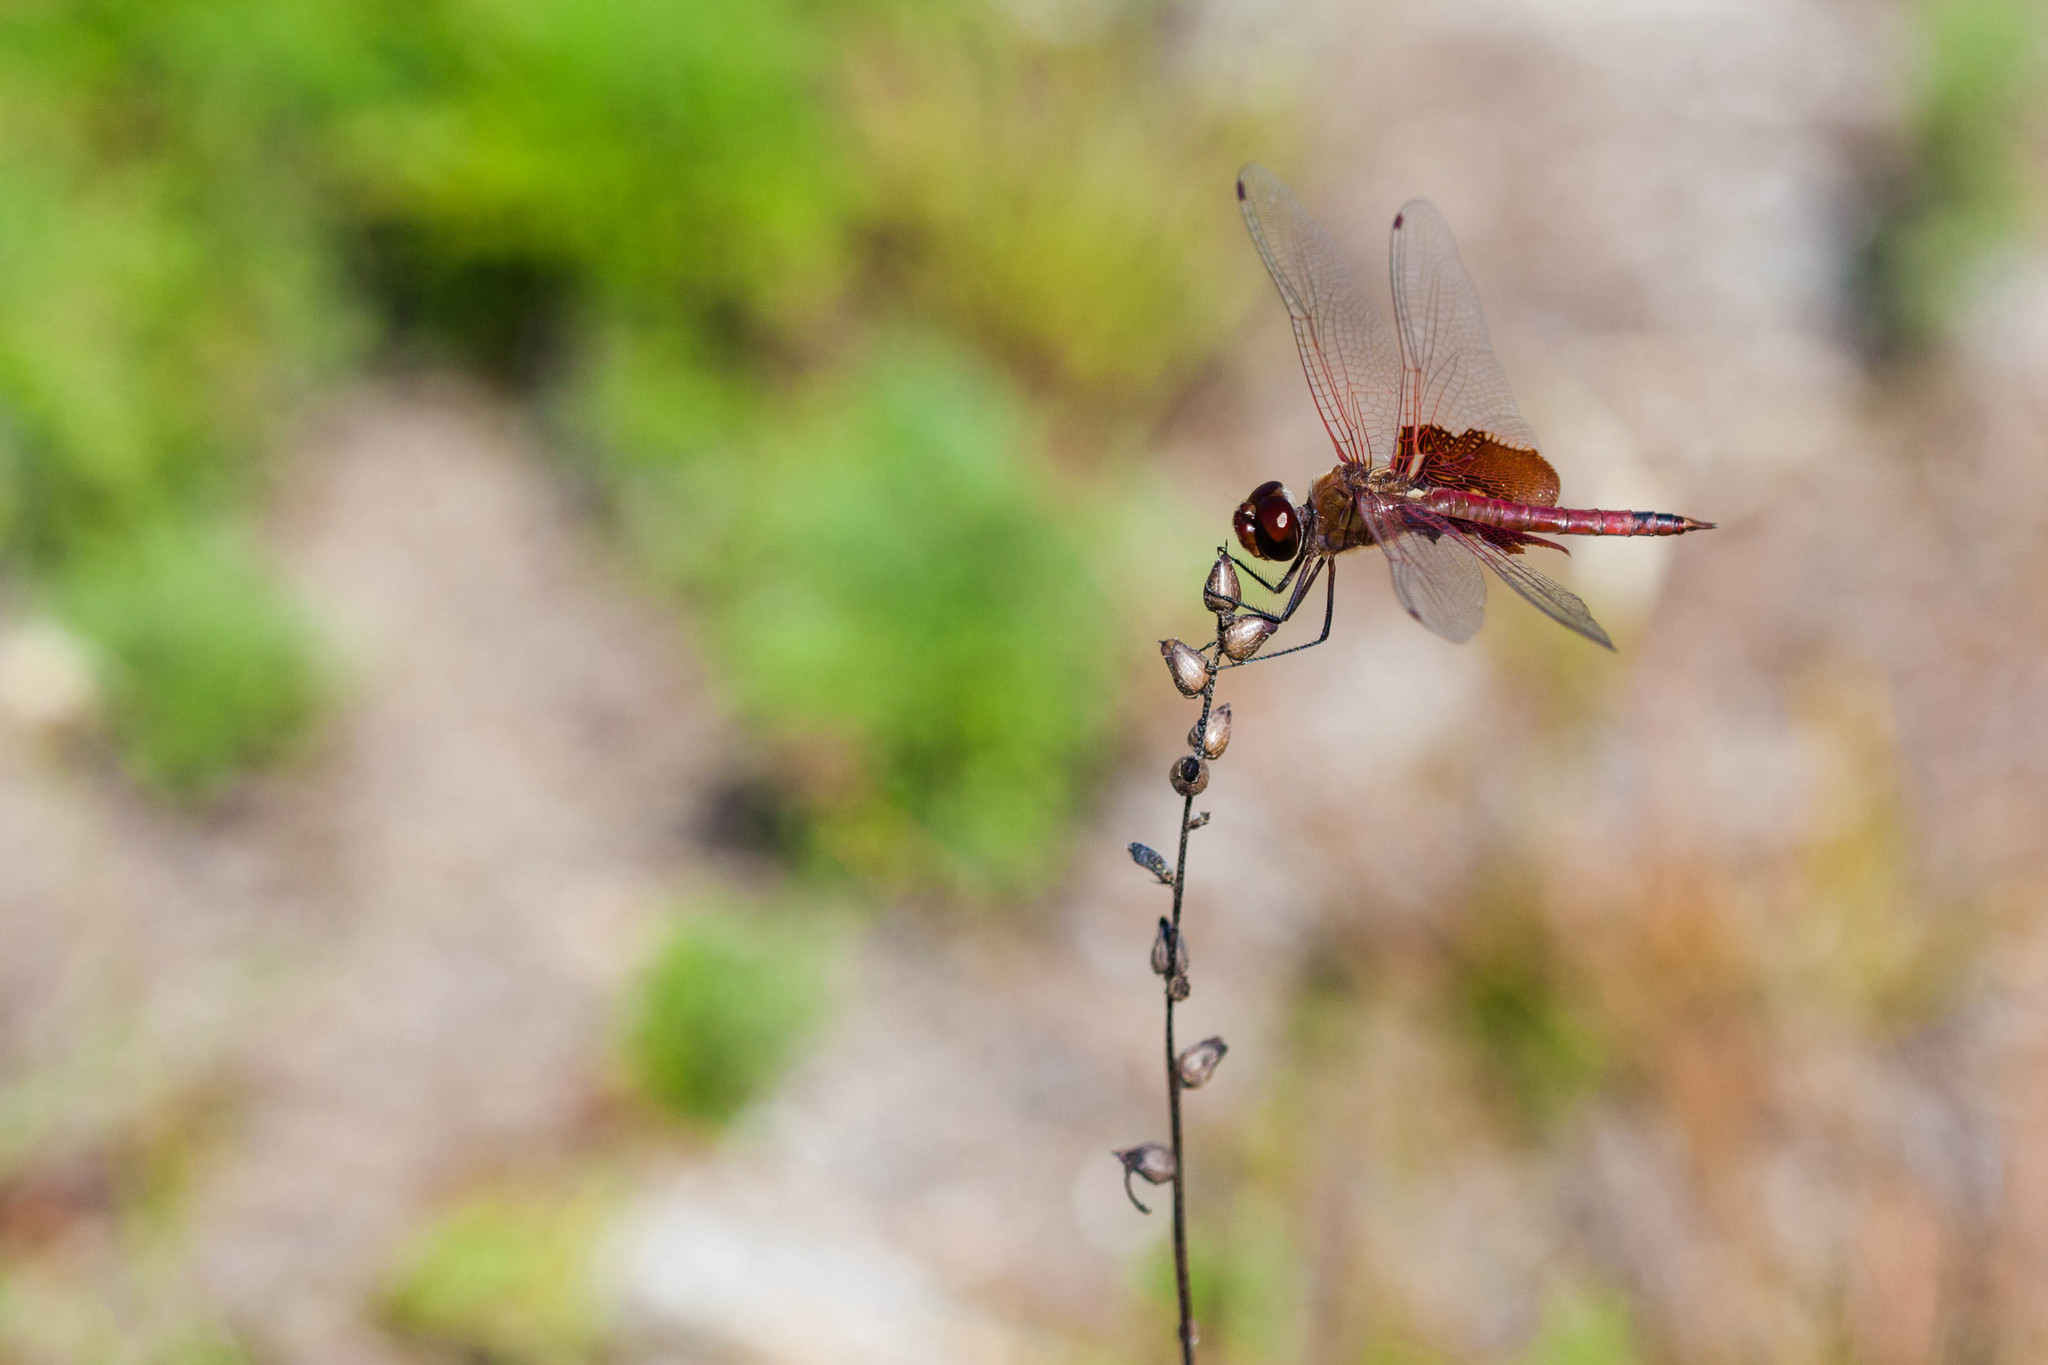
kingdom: Animalia
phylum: Arthropoda
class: Insecta
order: Odonata
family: Libellulidae
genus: Tramea
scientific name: Tramea carolina
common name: Carolina saddlebags
